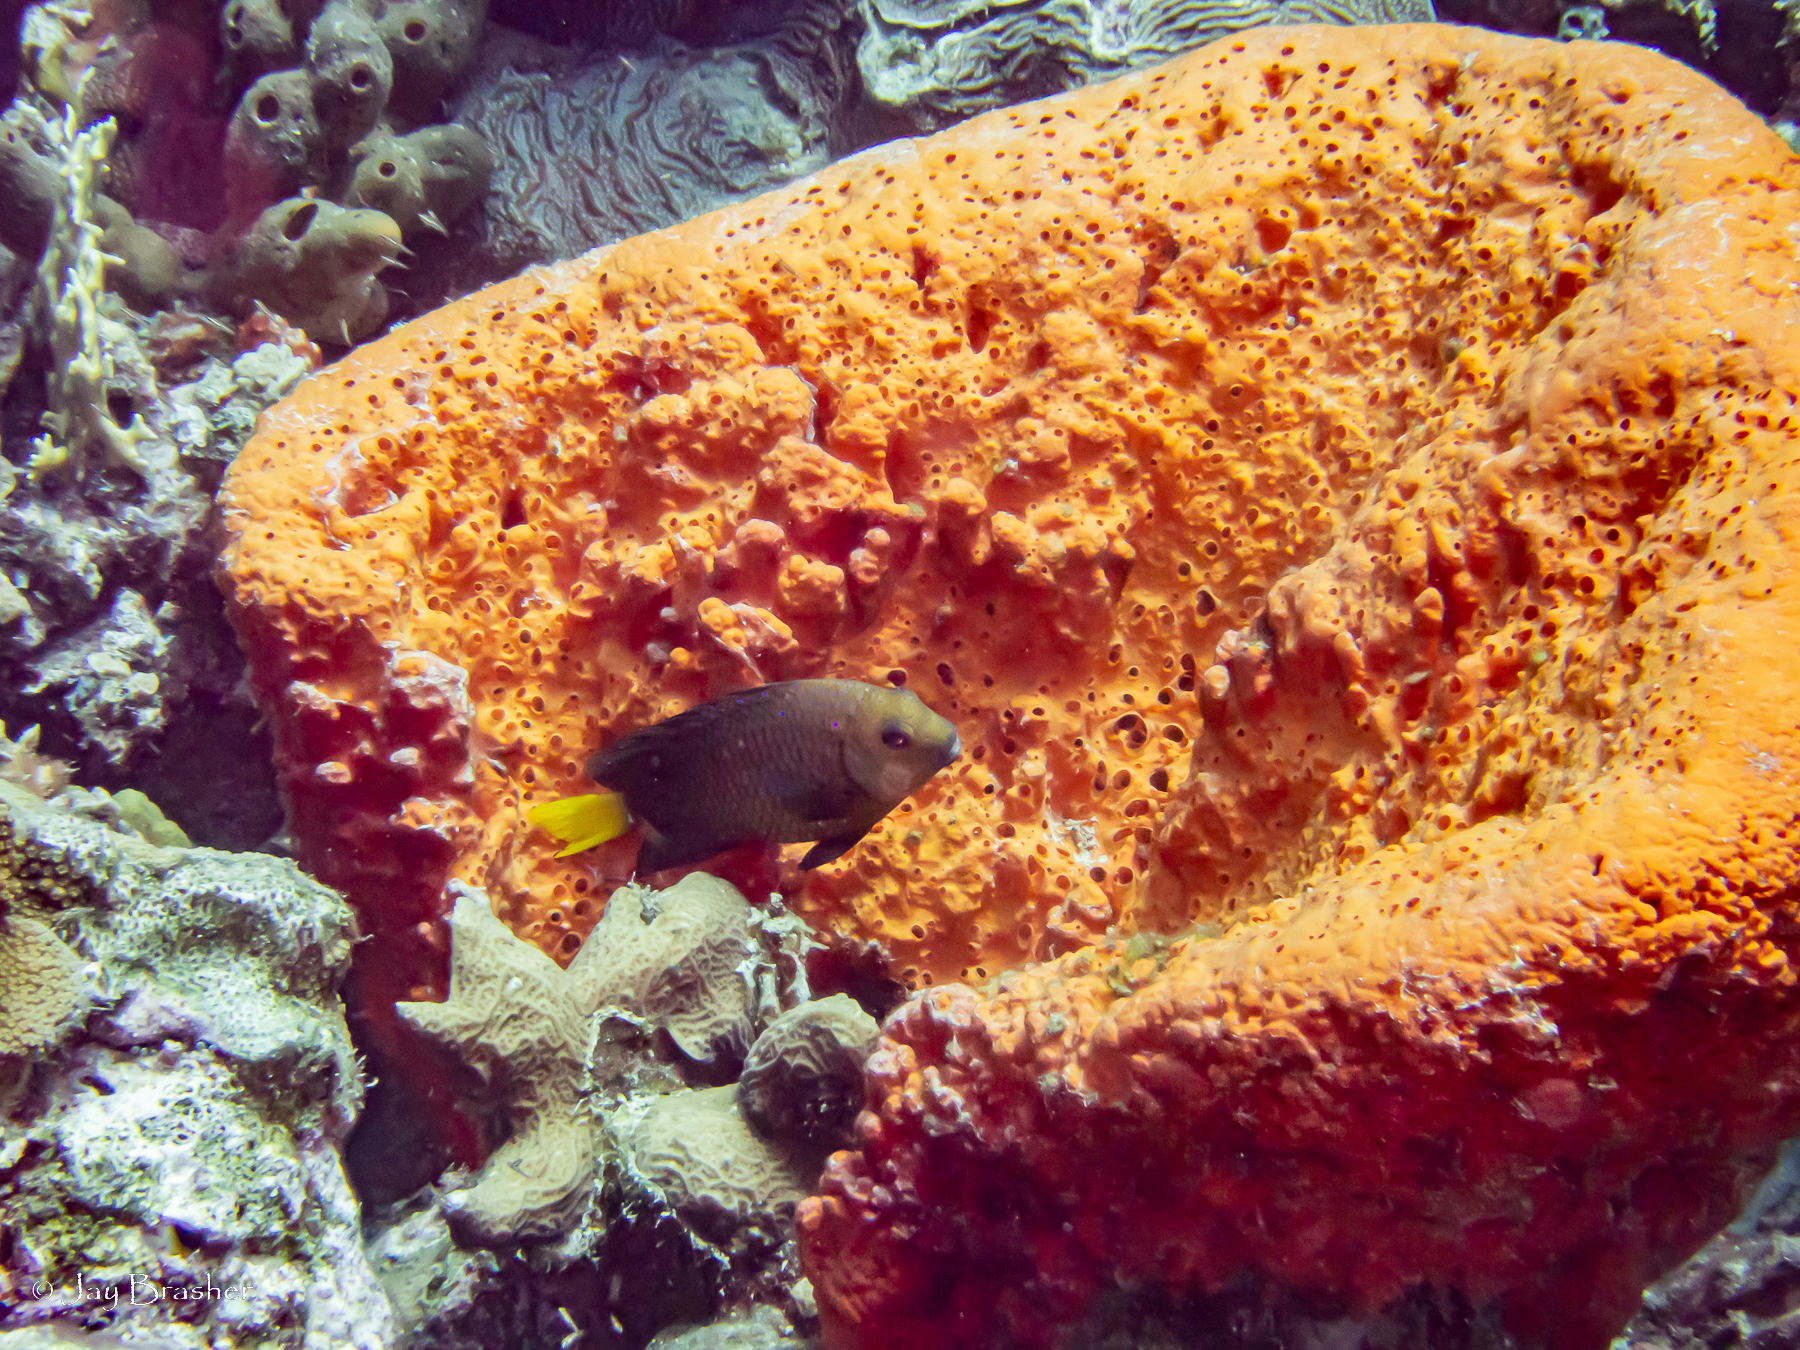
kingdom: Animalia
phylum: Chordata
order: Perciformes
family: Pomacentridae
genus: Microspathodon
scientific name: Microspathodon chrysurus
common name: Yellowtail damselfish
